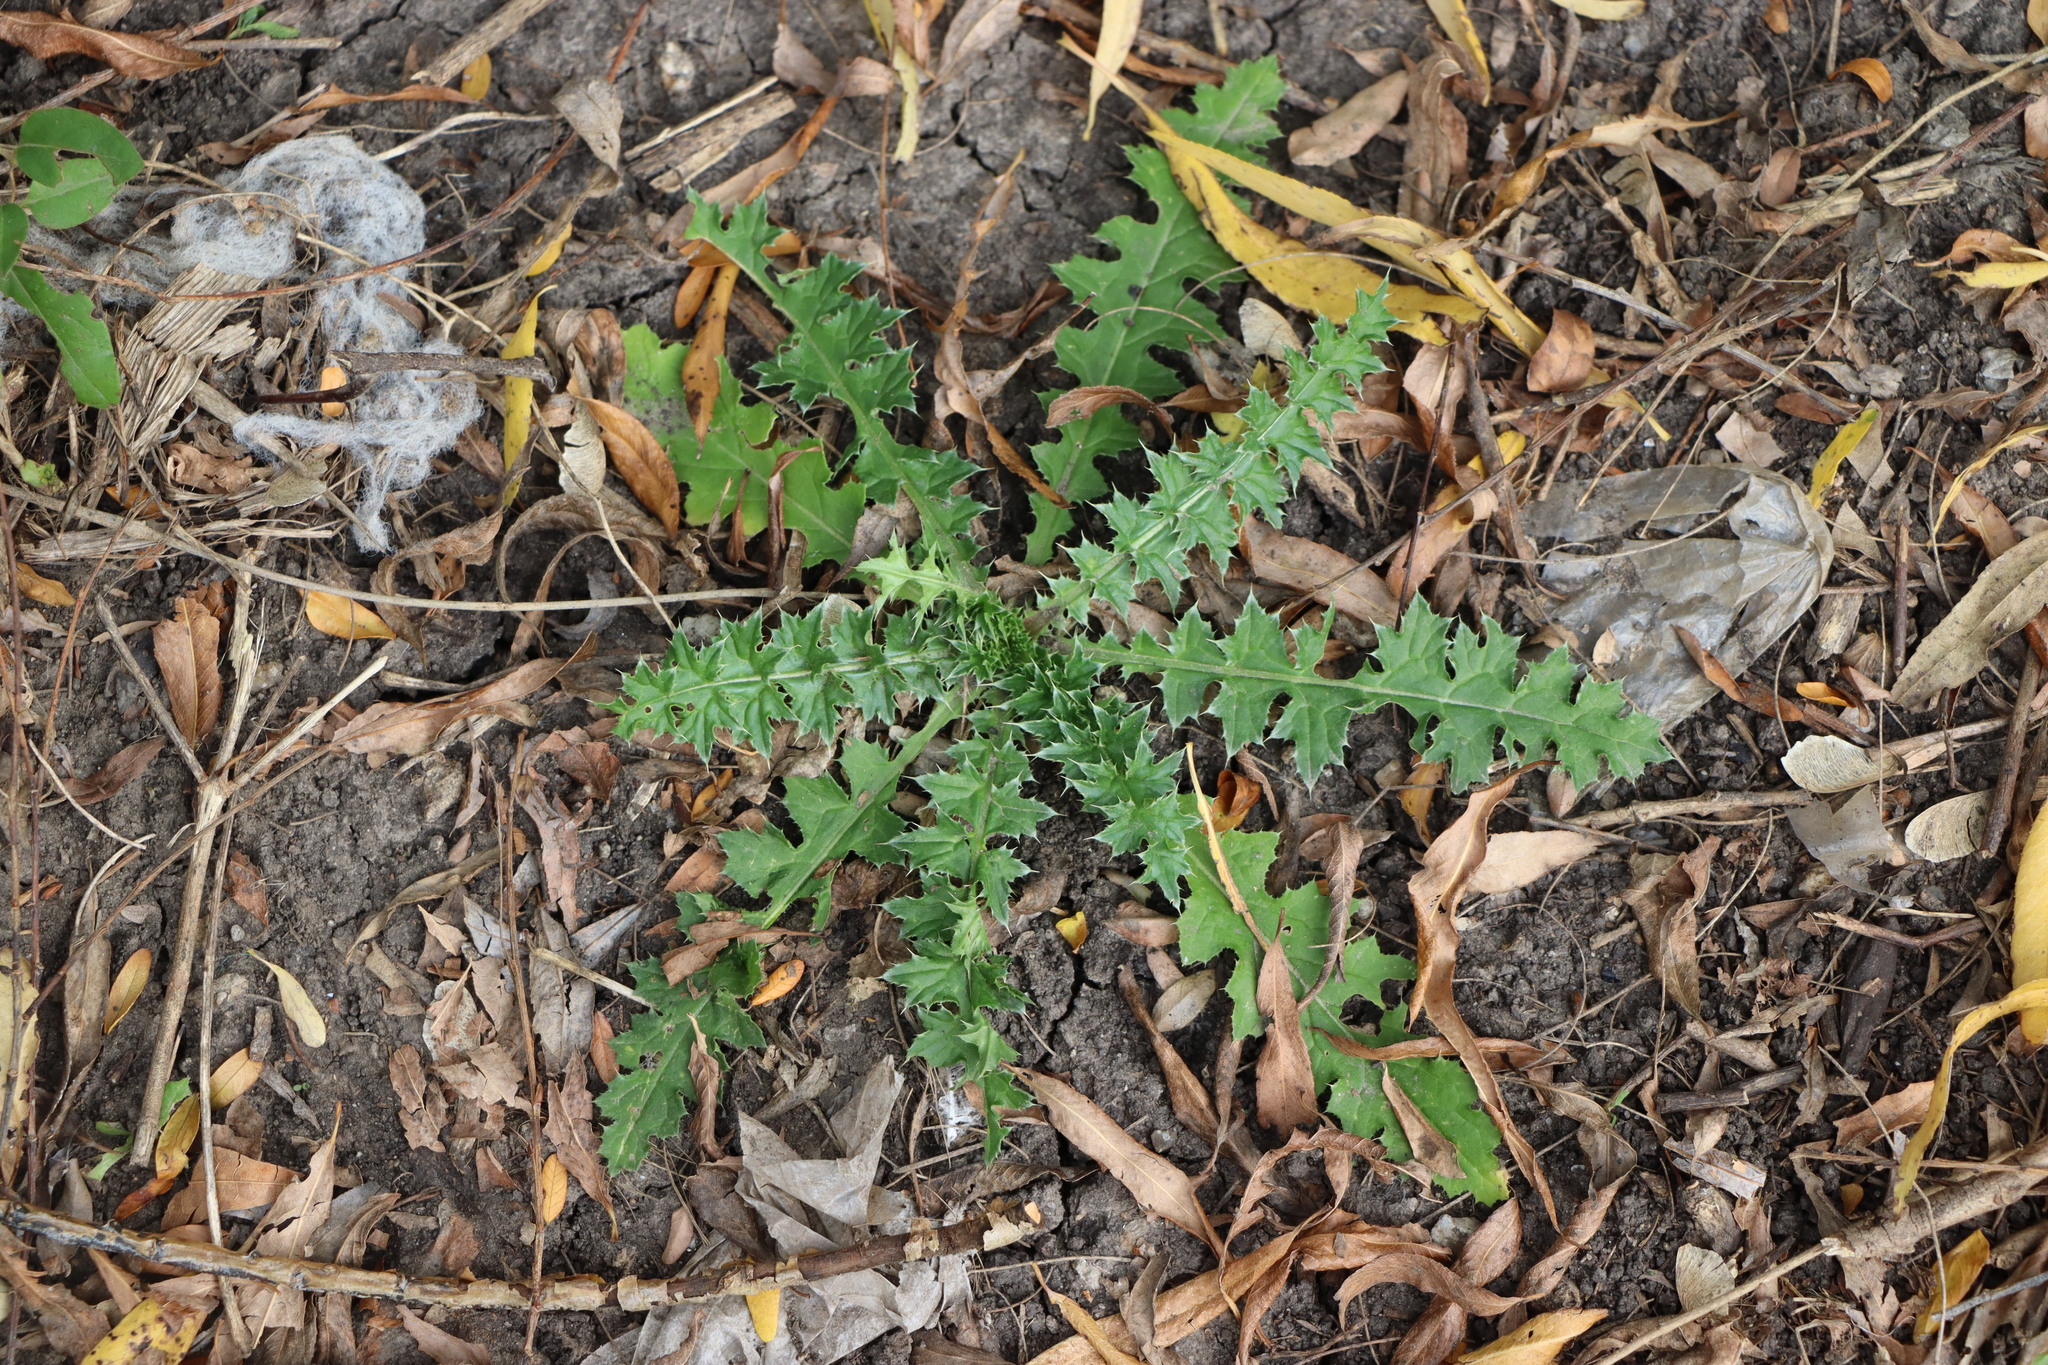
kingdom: Plantae
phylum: Tracheophyta
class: Magnoliopsida
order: Asterales
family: Asteraceae
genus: Carduus
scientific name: Carduus acanthoides
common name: Plumeless thistle
